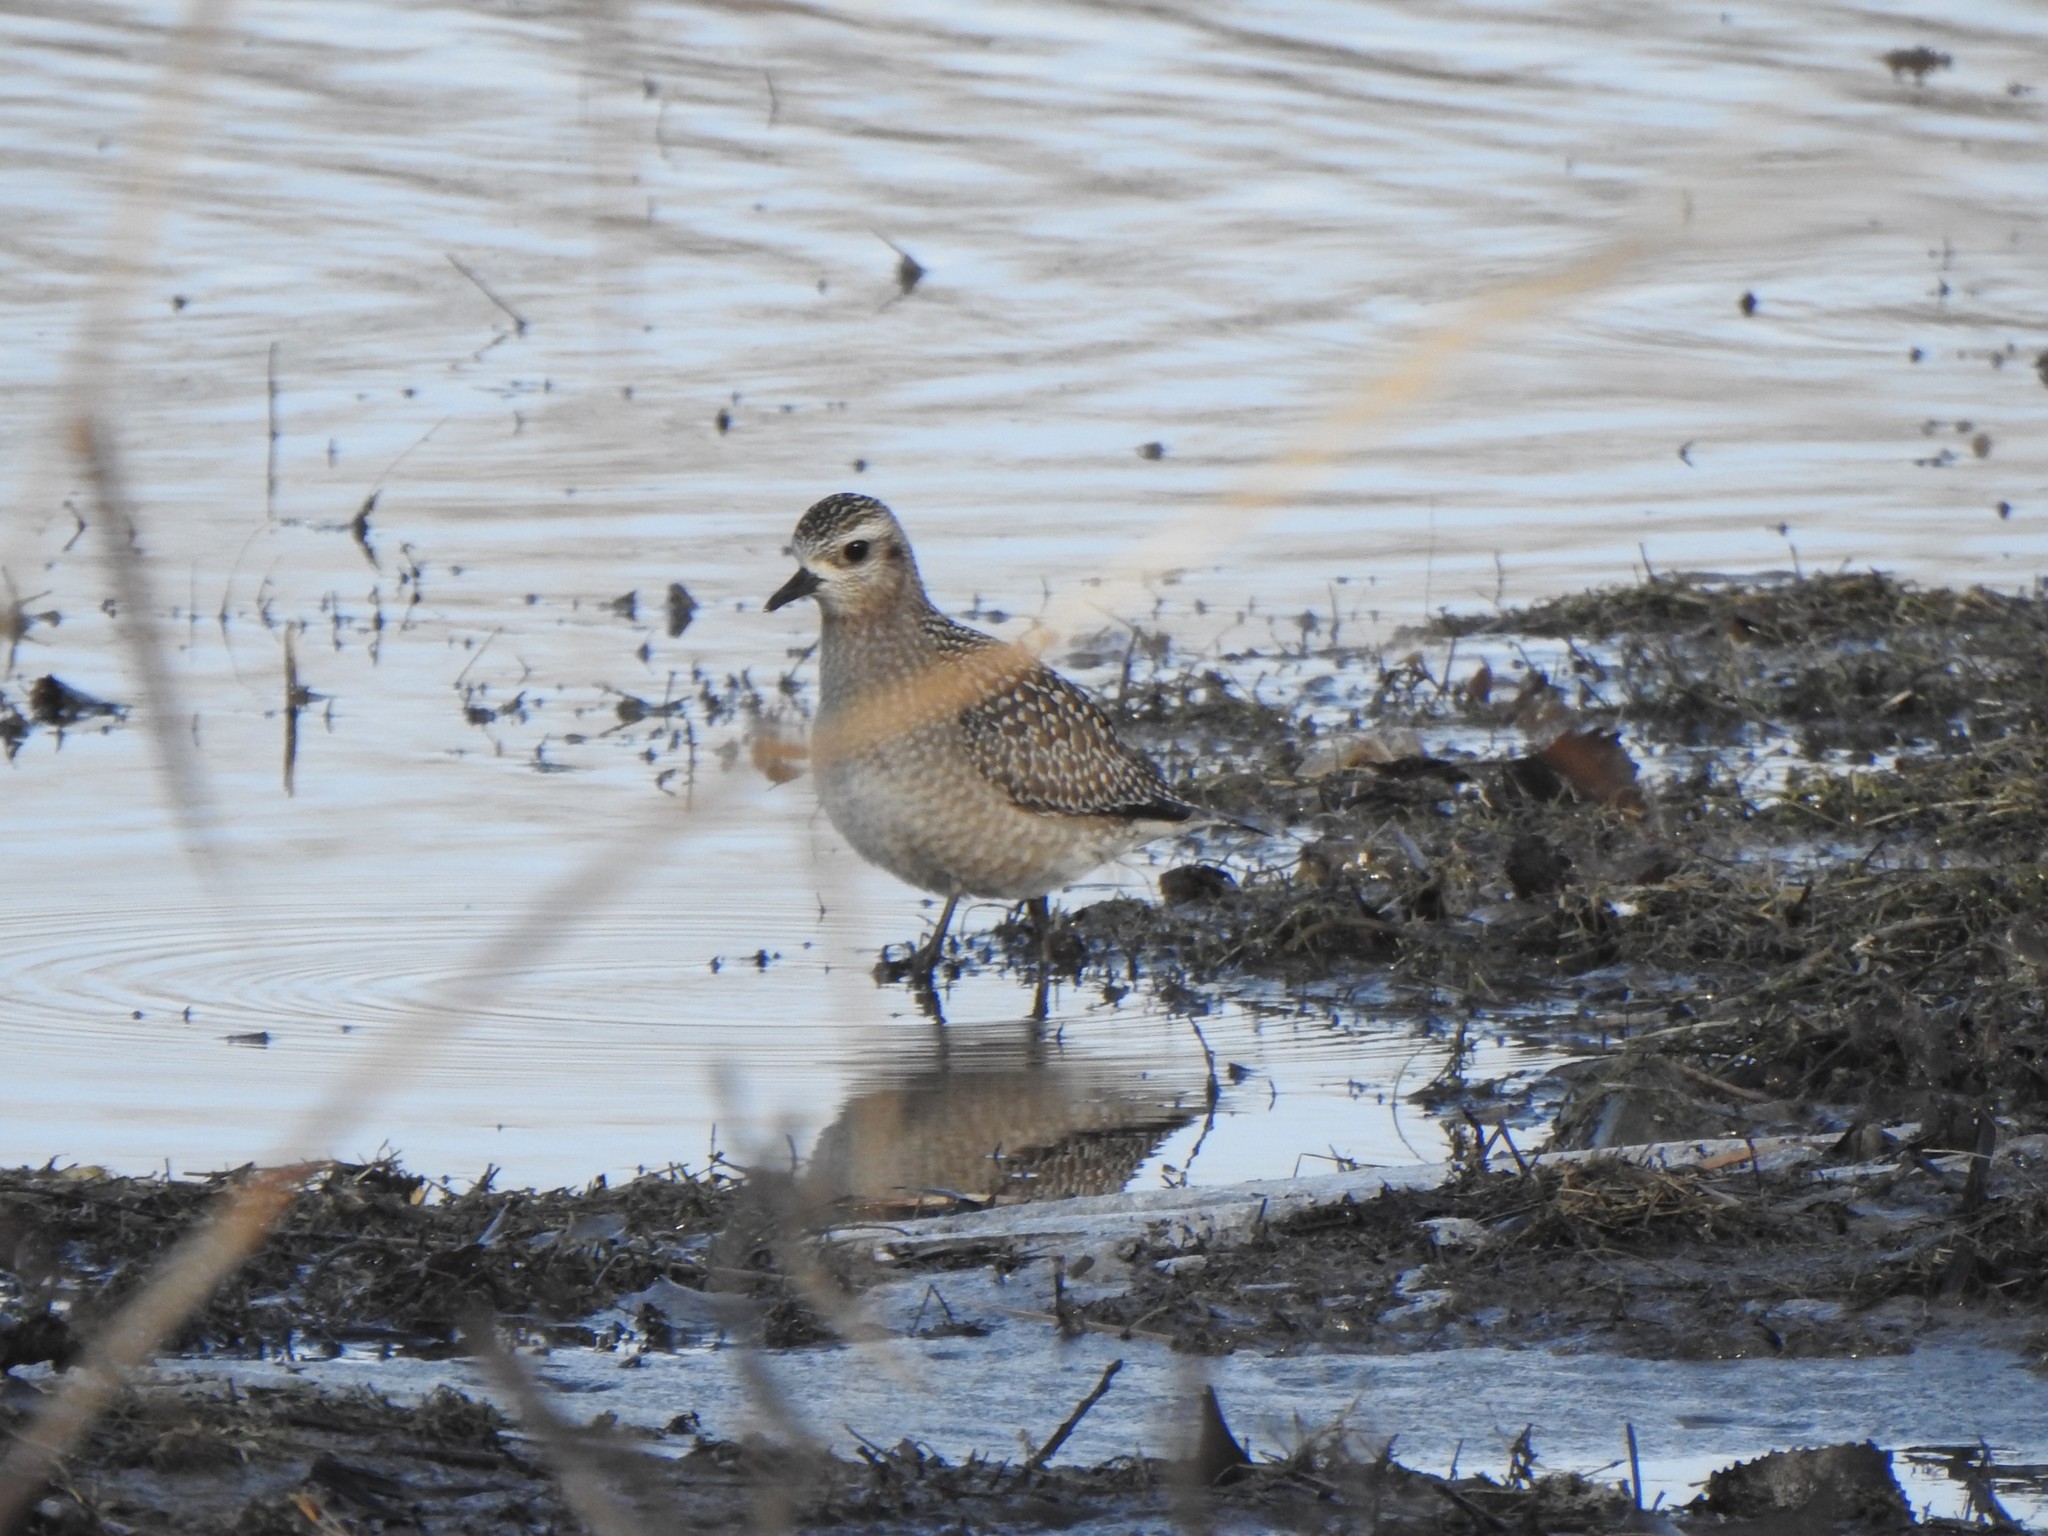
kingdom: Animalia
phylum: Chordata
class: Aves
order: Charadriiformes
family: Charadriidae
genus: Pluvialis
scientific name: Pluvialis dominica
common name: American golden plover
